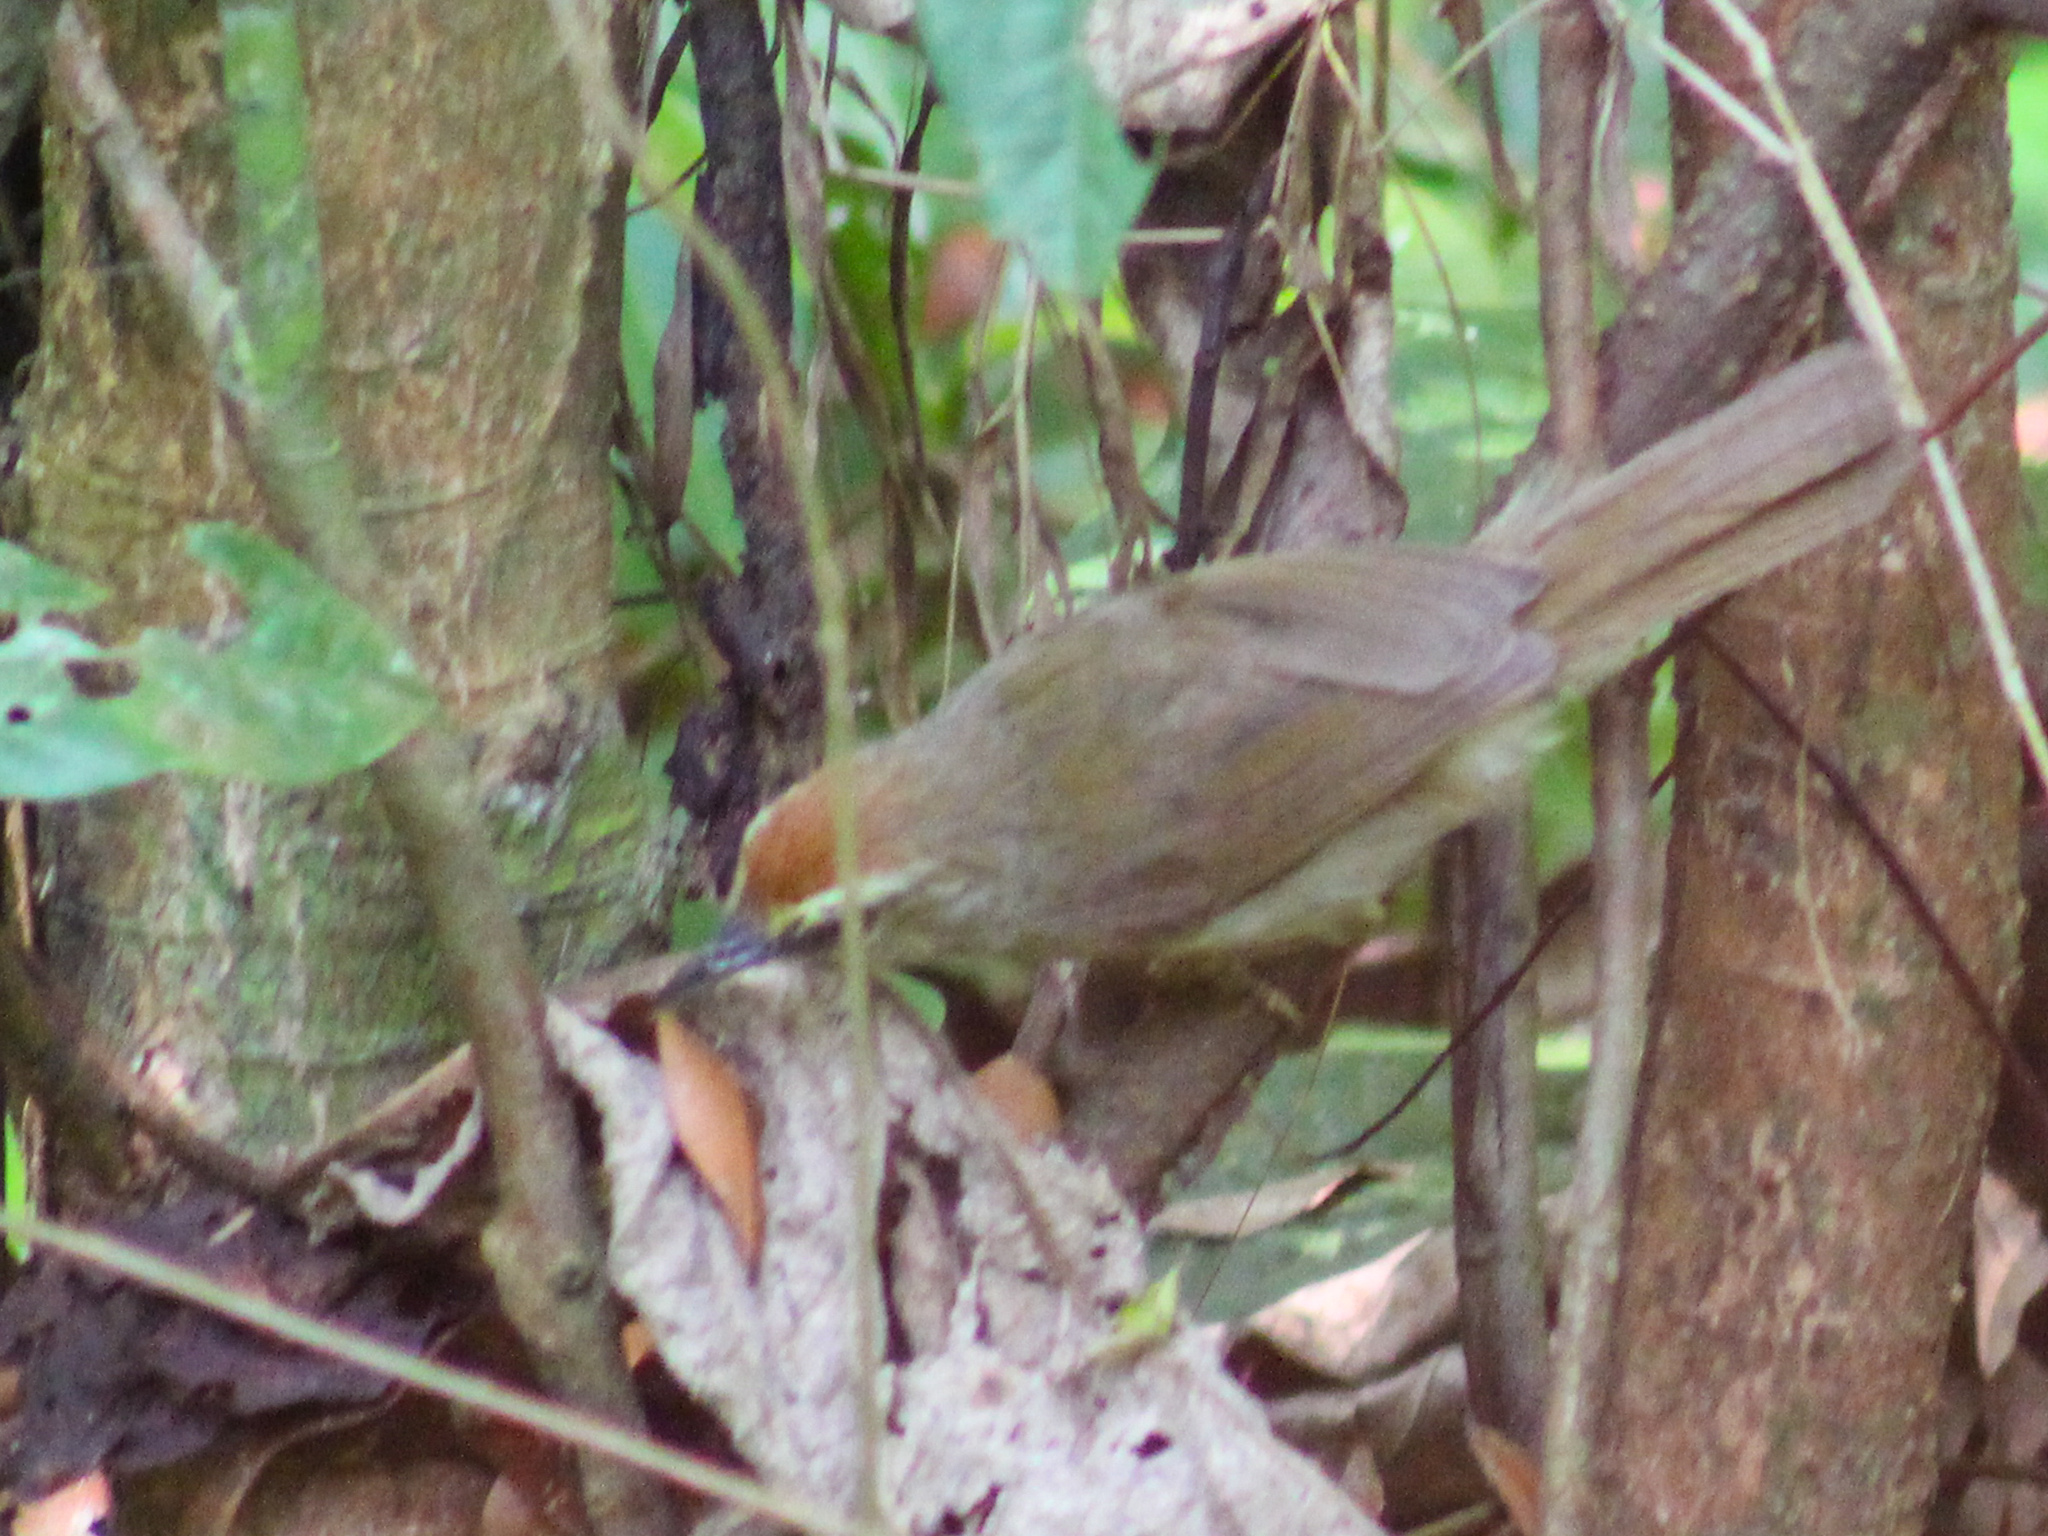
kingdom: Animalia
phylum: Chordata
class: Aves
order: Passeriformes
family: Timaliidae
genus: Macronus
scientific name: Macronus gularis
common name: Striped tit-babbler
